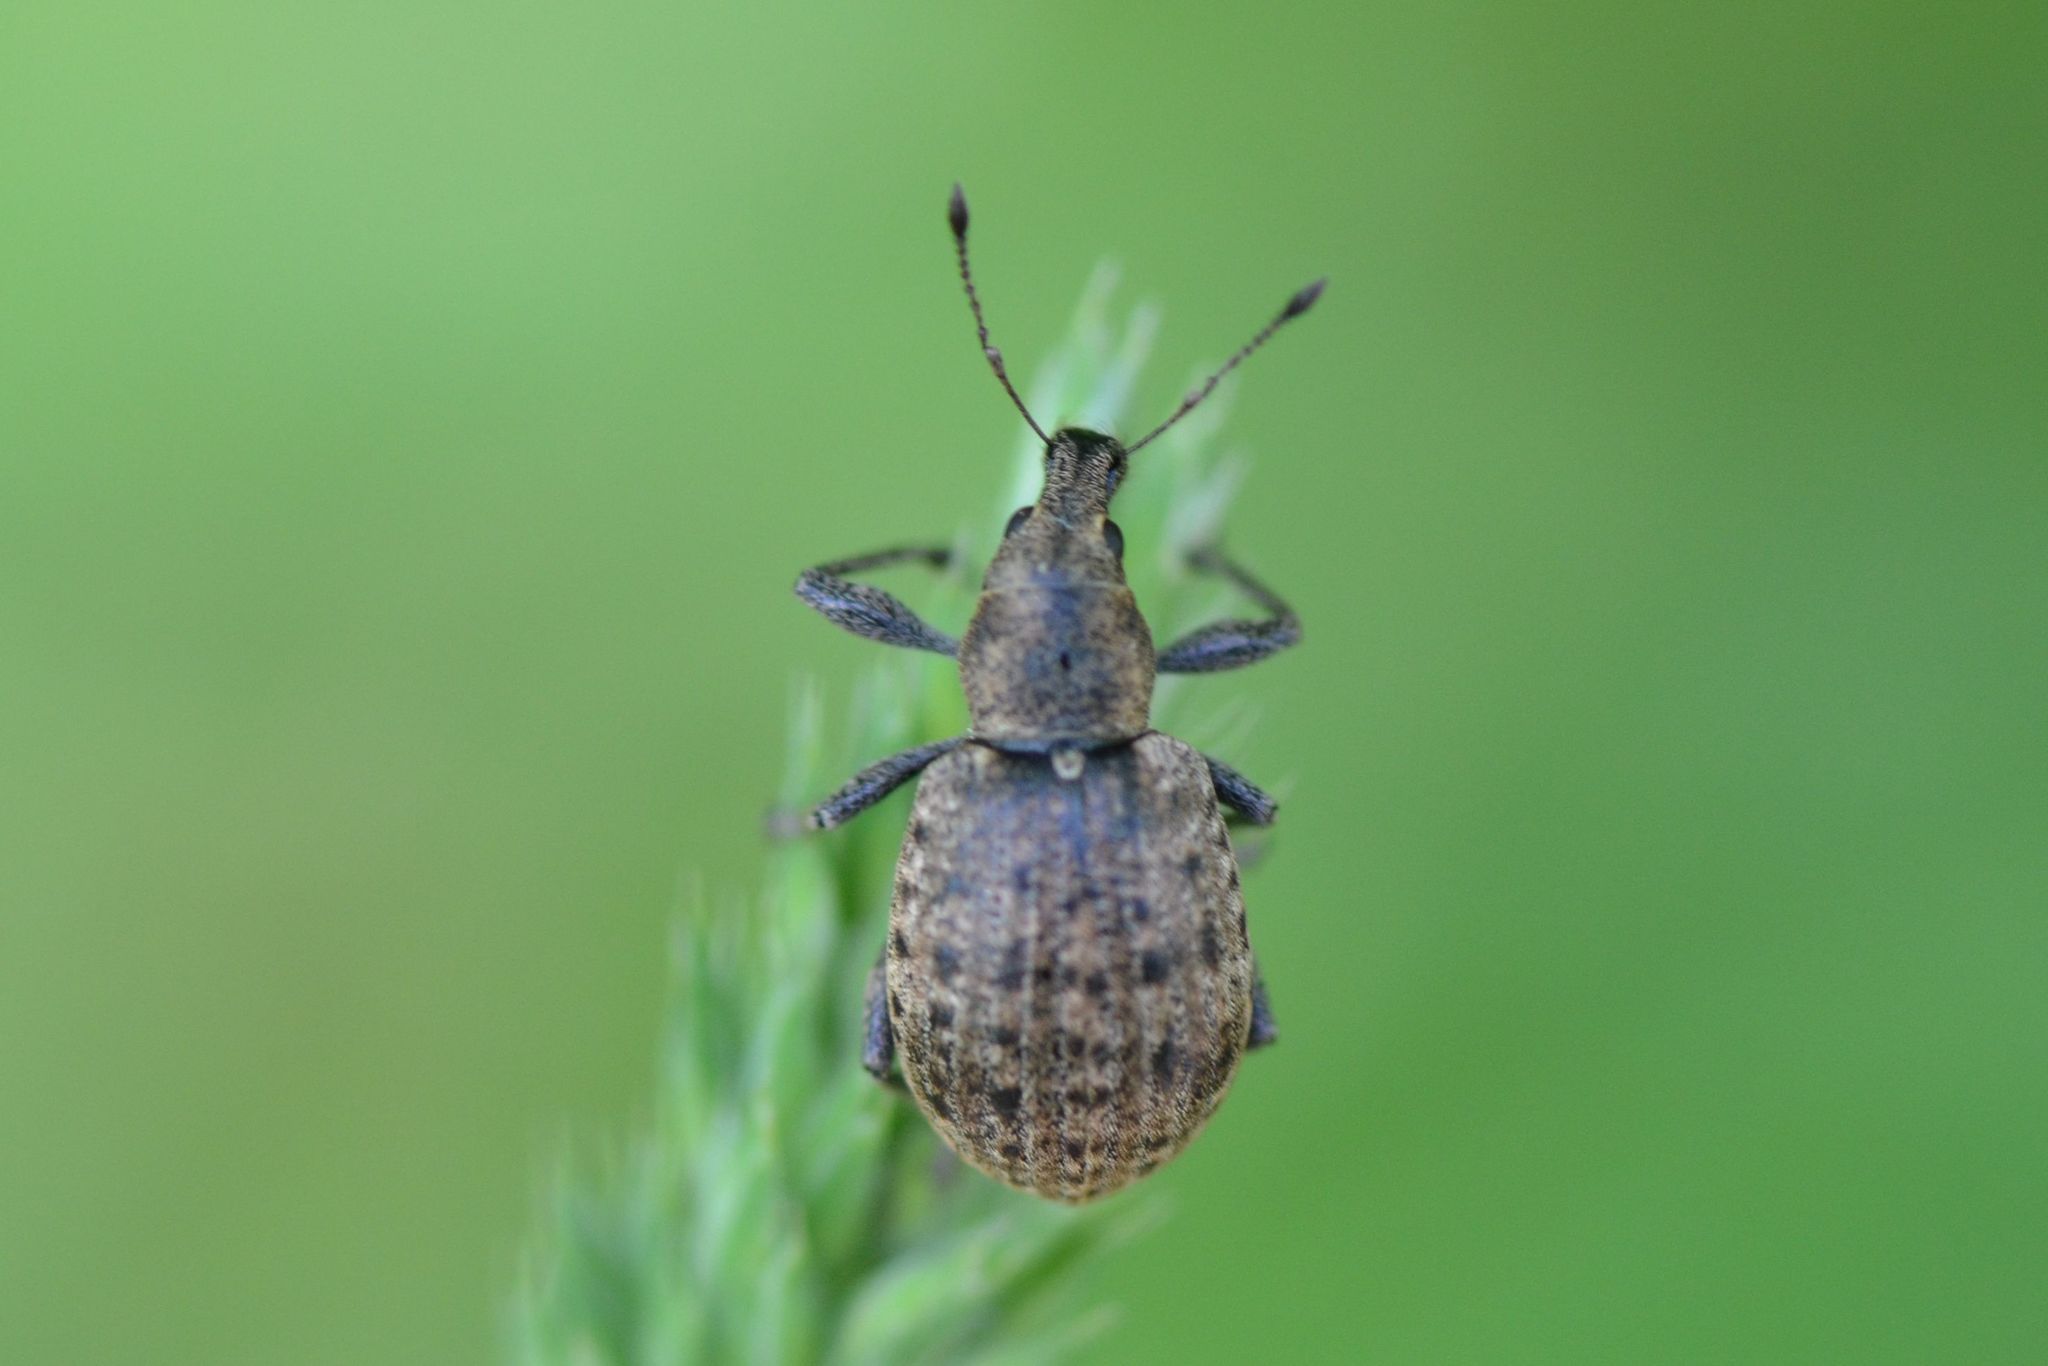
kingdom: Animalia
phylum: Arthropoda
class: Insecta
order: Coleoptera
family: Curculionidae
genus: Liophloeus
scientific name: Liophloeus tessulatus
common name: Weevil
